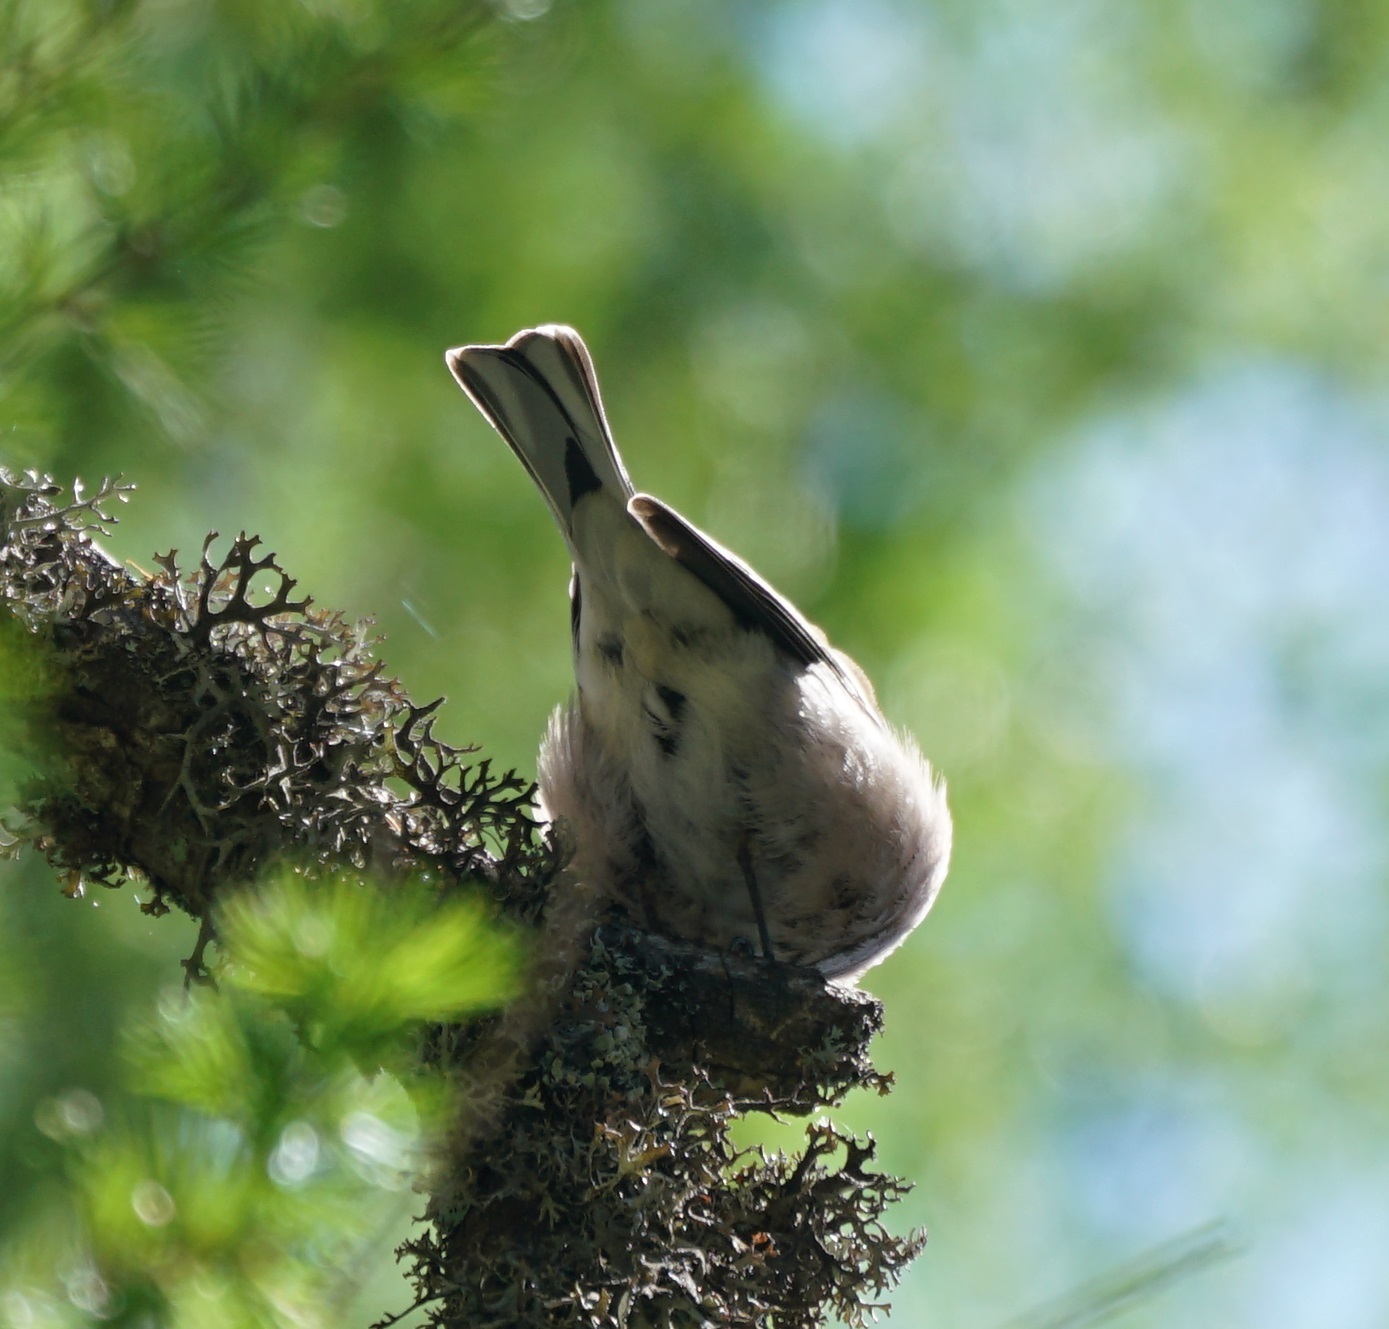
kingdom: Animalia
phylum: Chordata
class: Aves
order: Passeriformes
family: Fringillidae
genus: Fringilla
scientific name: Fringilla coelebs
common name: Common chaffinch
